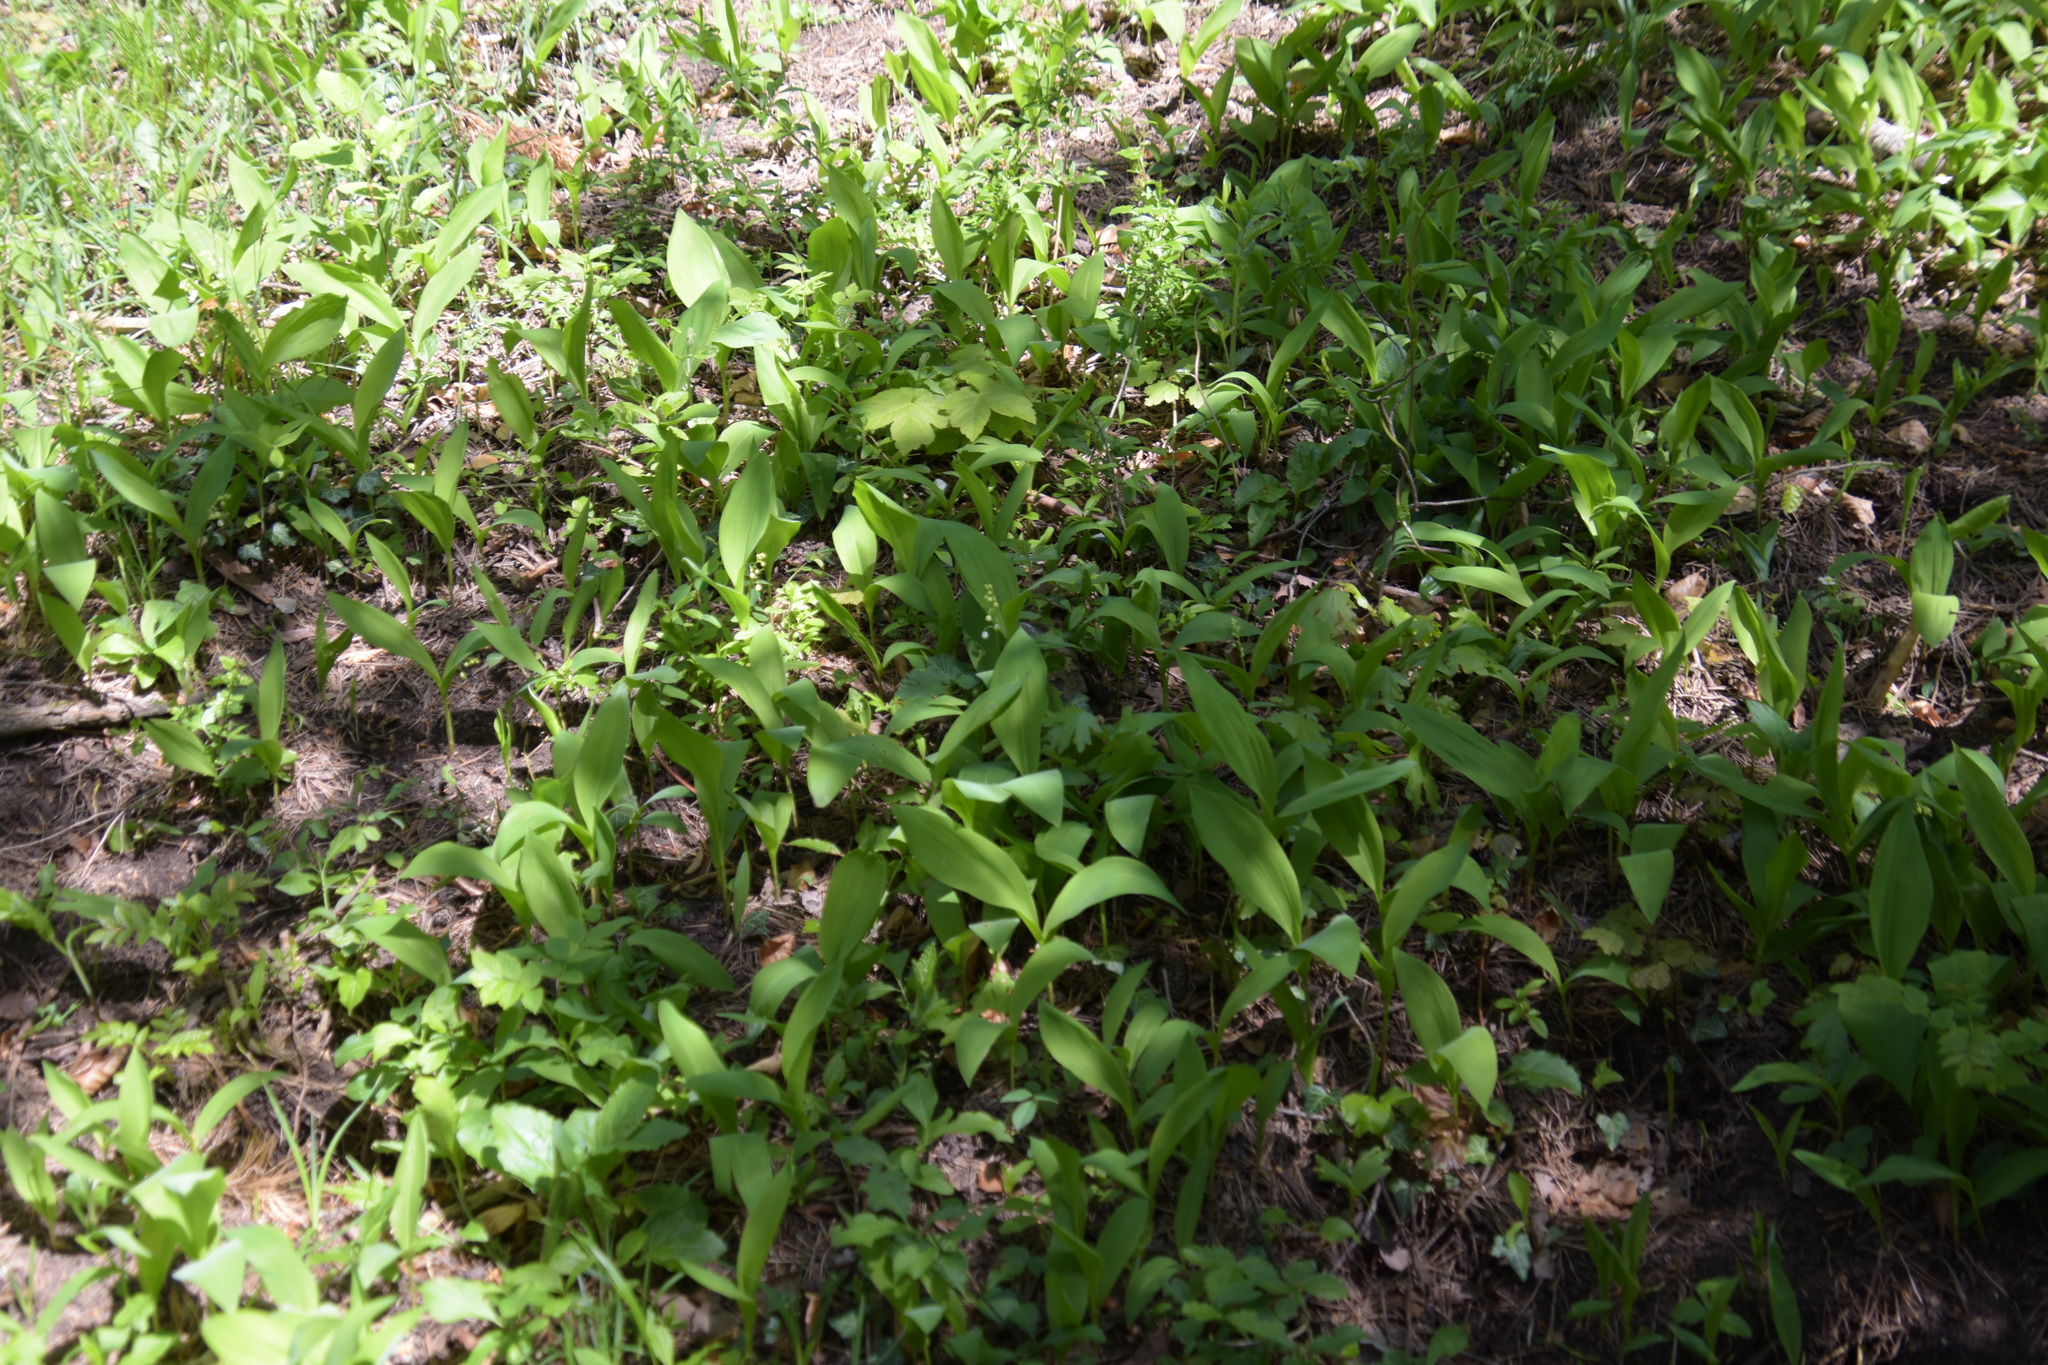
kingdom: Plantae
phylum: Tracheophyta
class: Liliopsida
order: Asparagales
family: Asparagaceae
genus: Convallaria
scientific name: Convallaria majalis
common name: Lily-of-the-valley
